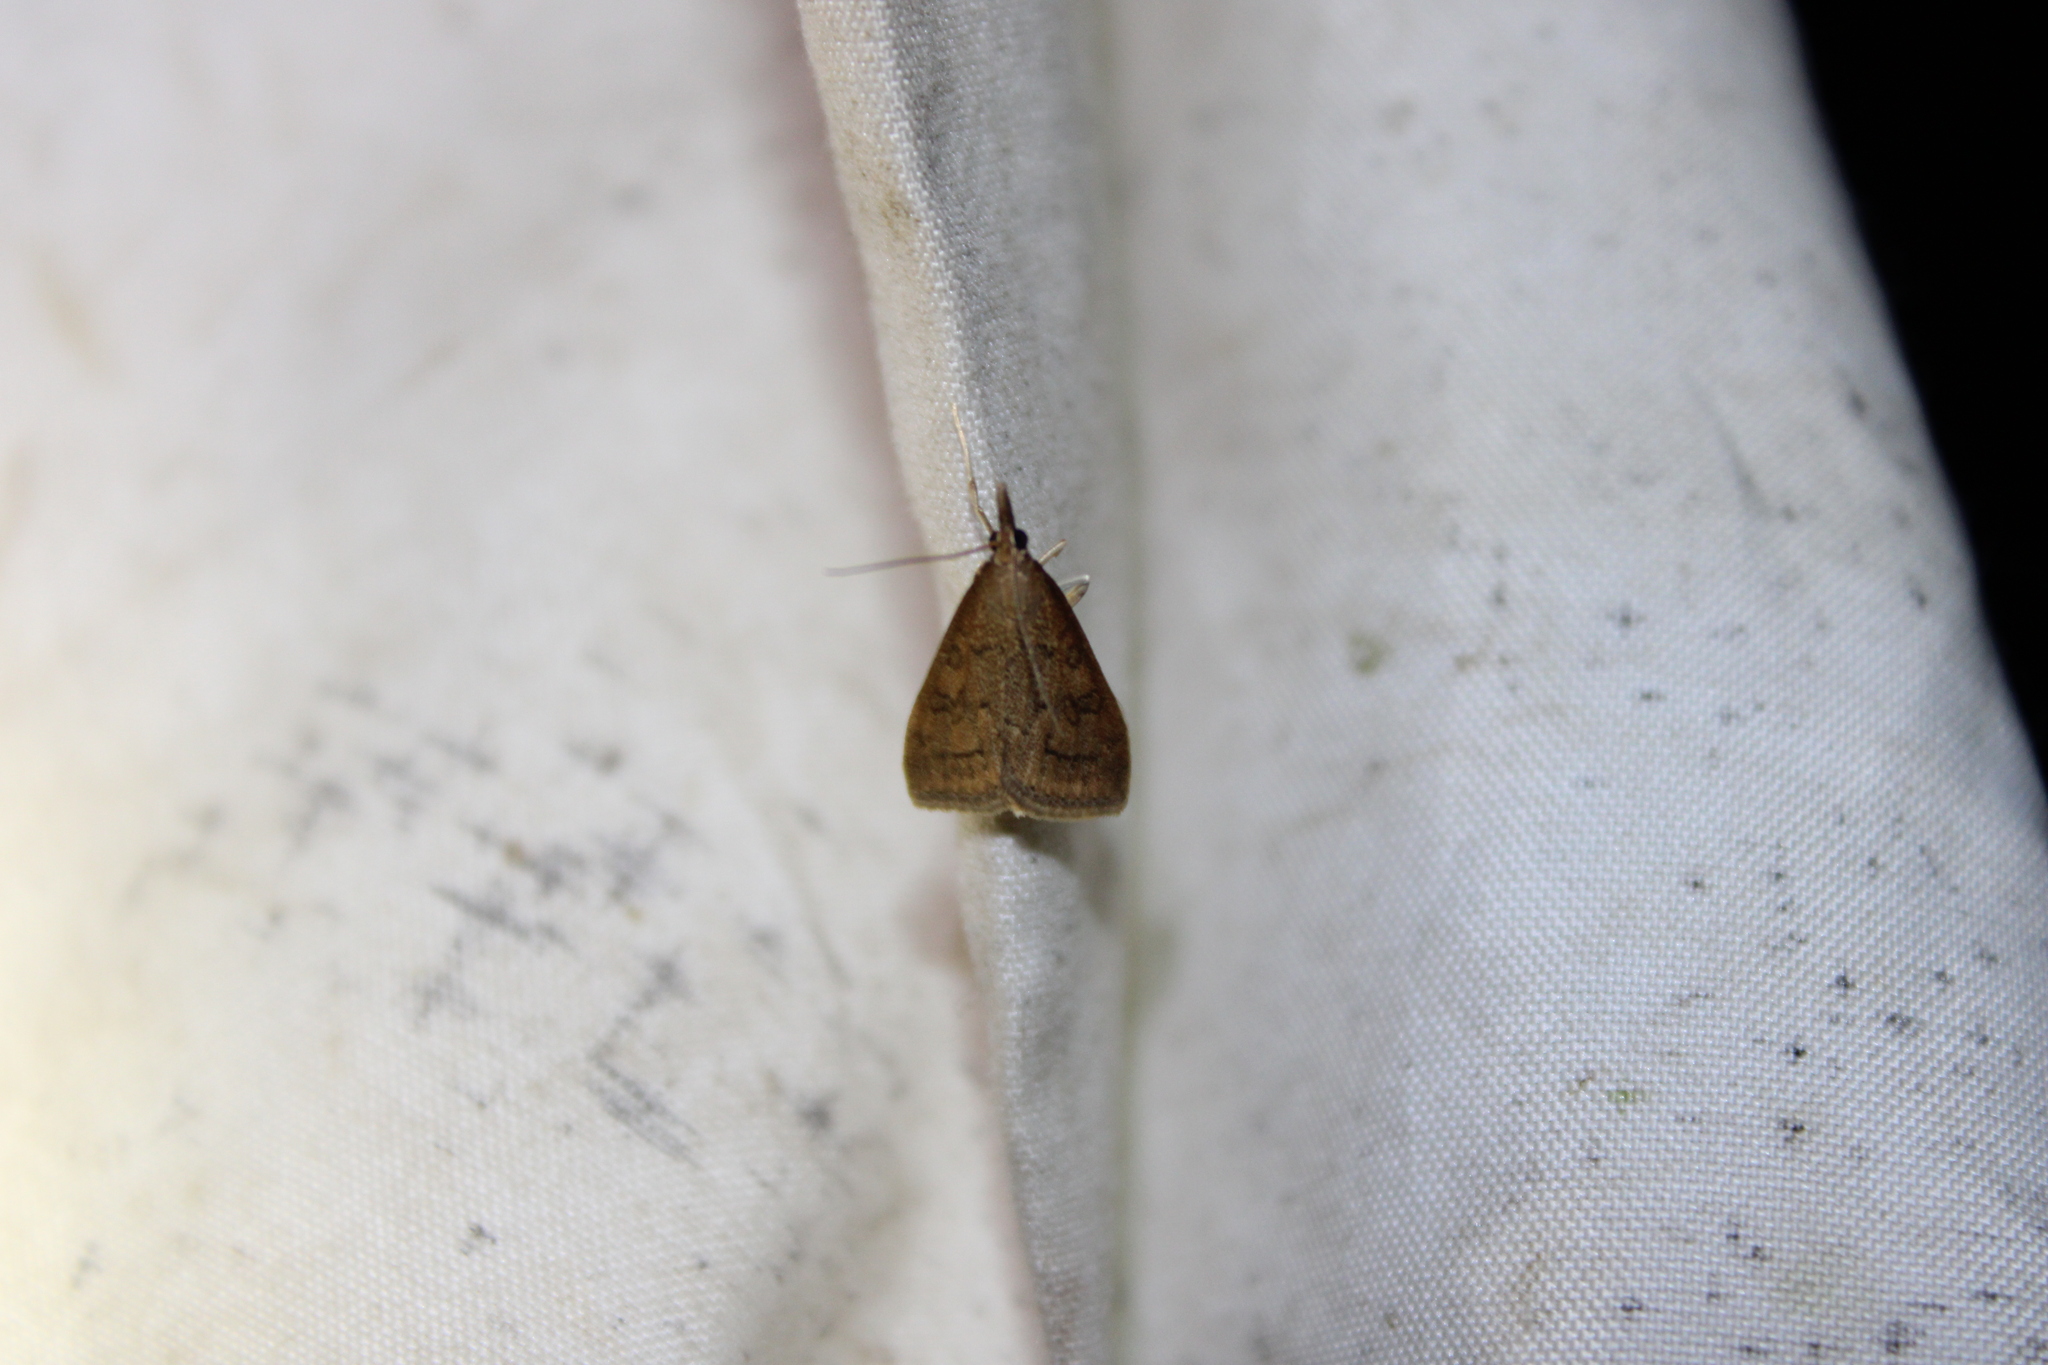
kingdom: Animalia
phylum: Arthropoda
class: Insecta
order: Lepidoptera
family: Crambidae
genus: Udea
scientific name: Udea rubigalis
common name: Celery leaftier moth
